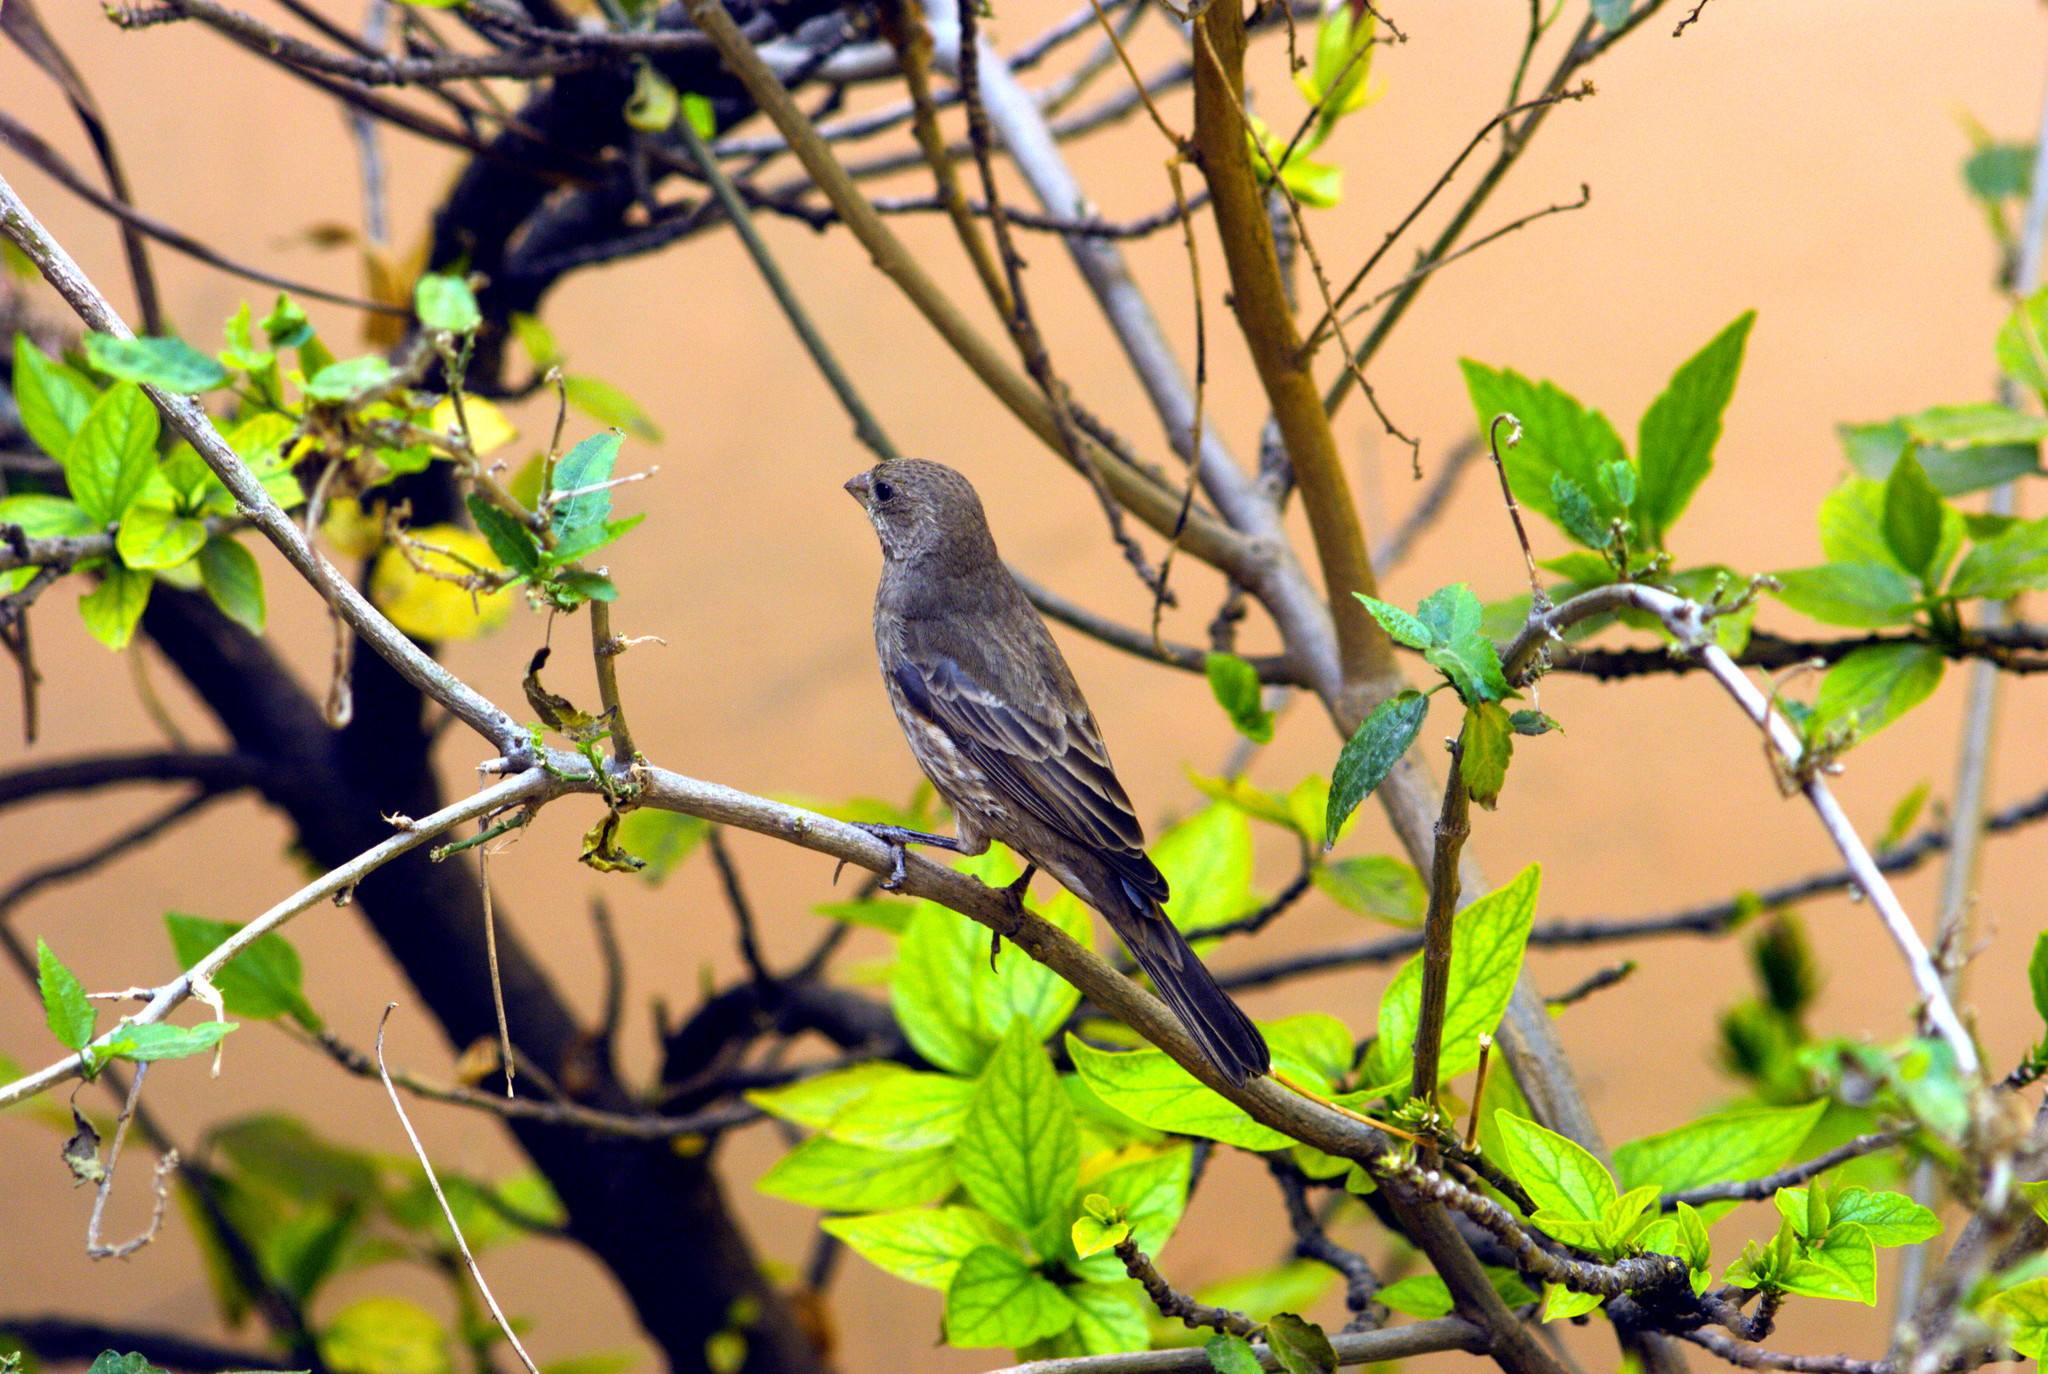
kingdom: Animalia
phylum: Chordata
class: Aves
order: Passeriformes
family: Fringillidae
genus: Haemorhous
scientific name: Haemorhous mexicanus
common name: House finch
